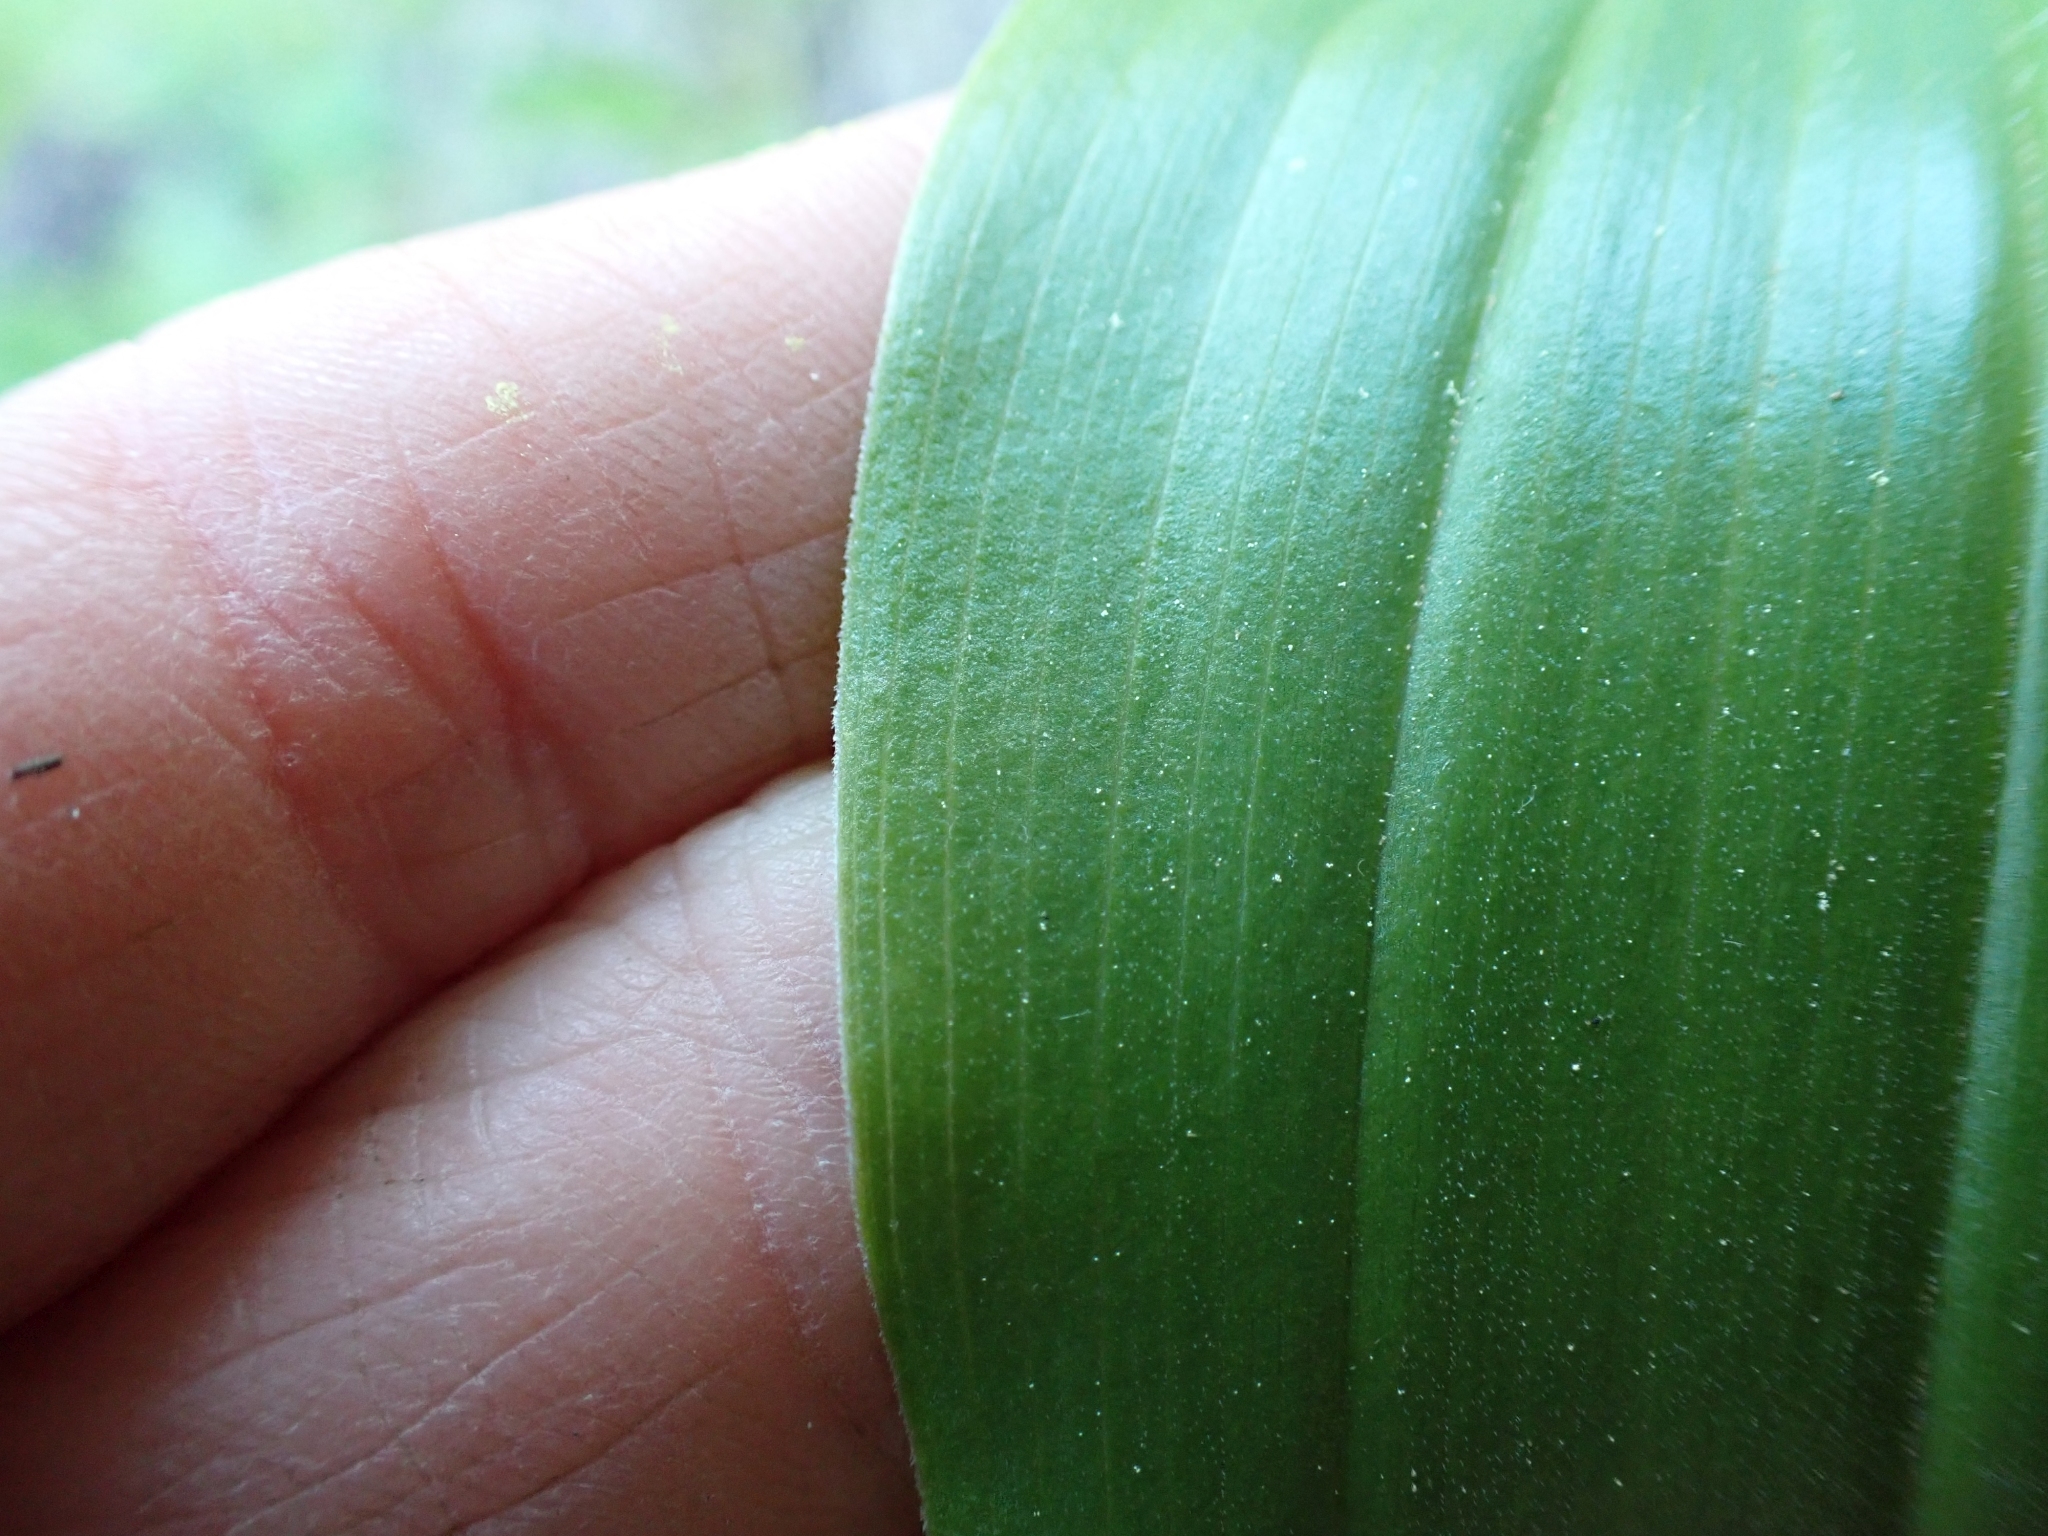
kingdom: Plantae
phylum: Tracheophyta
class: Liliopsida
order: Asparagales
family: Asparagaceae
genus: Maianthemum
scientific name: Maianthemum racemosum
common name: False spikenard
